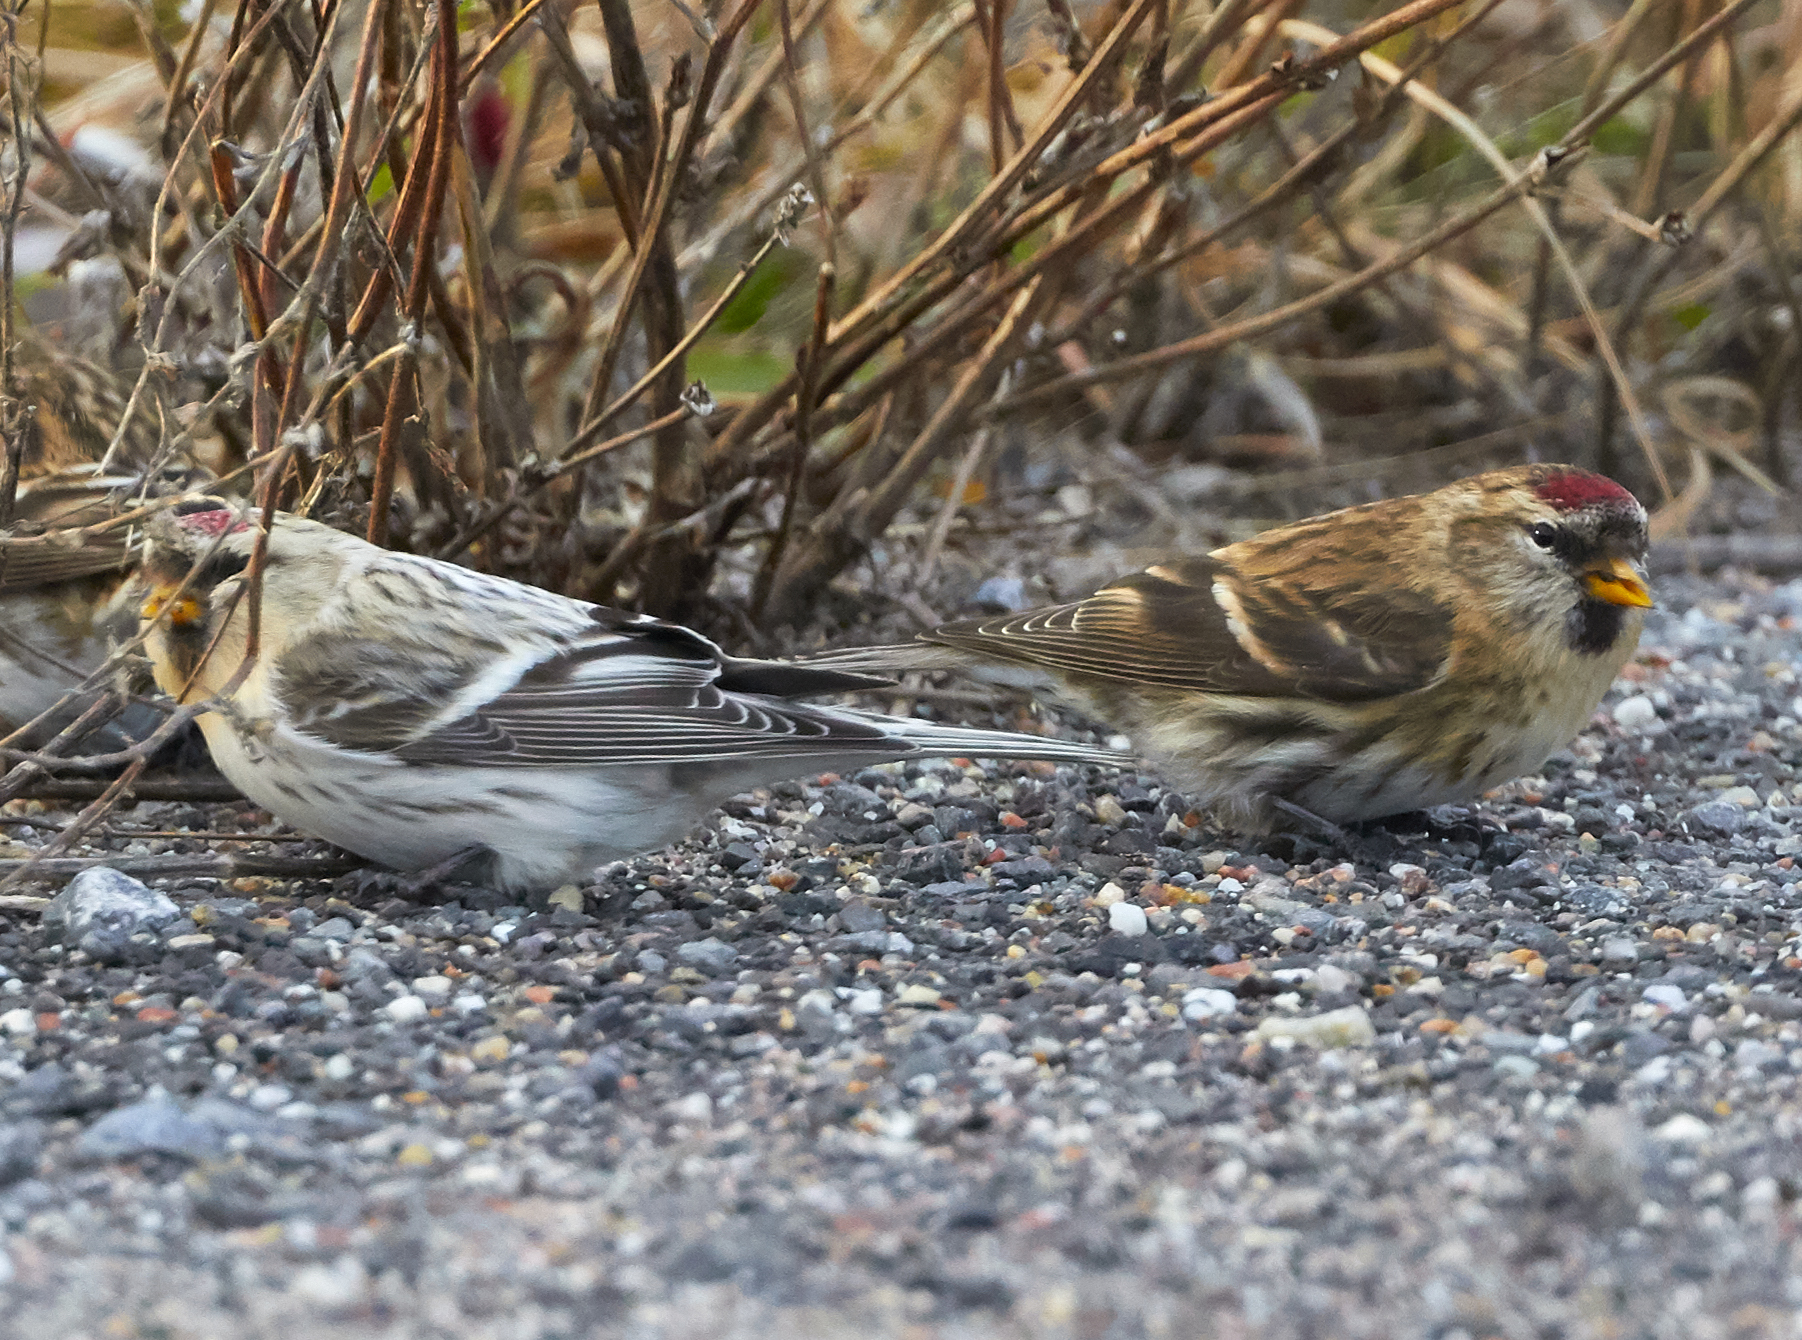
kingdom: Animalia
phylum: Chordata
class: Aves
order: Passeriformes
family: Fringillidae
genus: Acanthis
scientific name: Acanthis hornemanni
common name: Arctic redpoll
